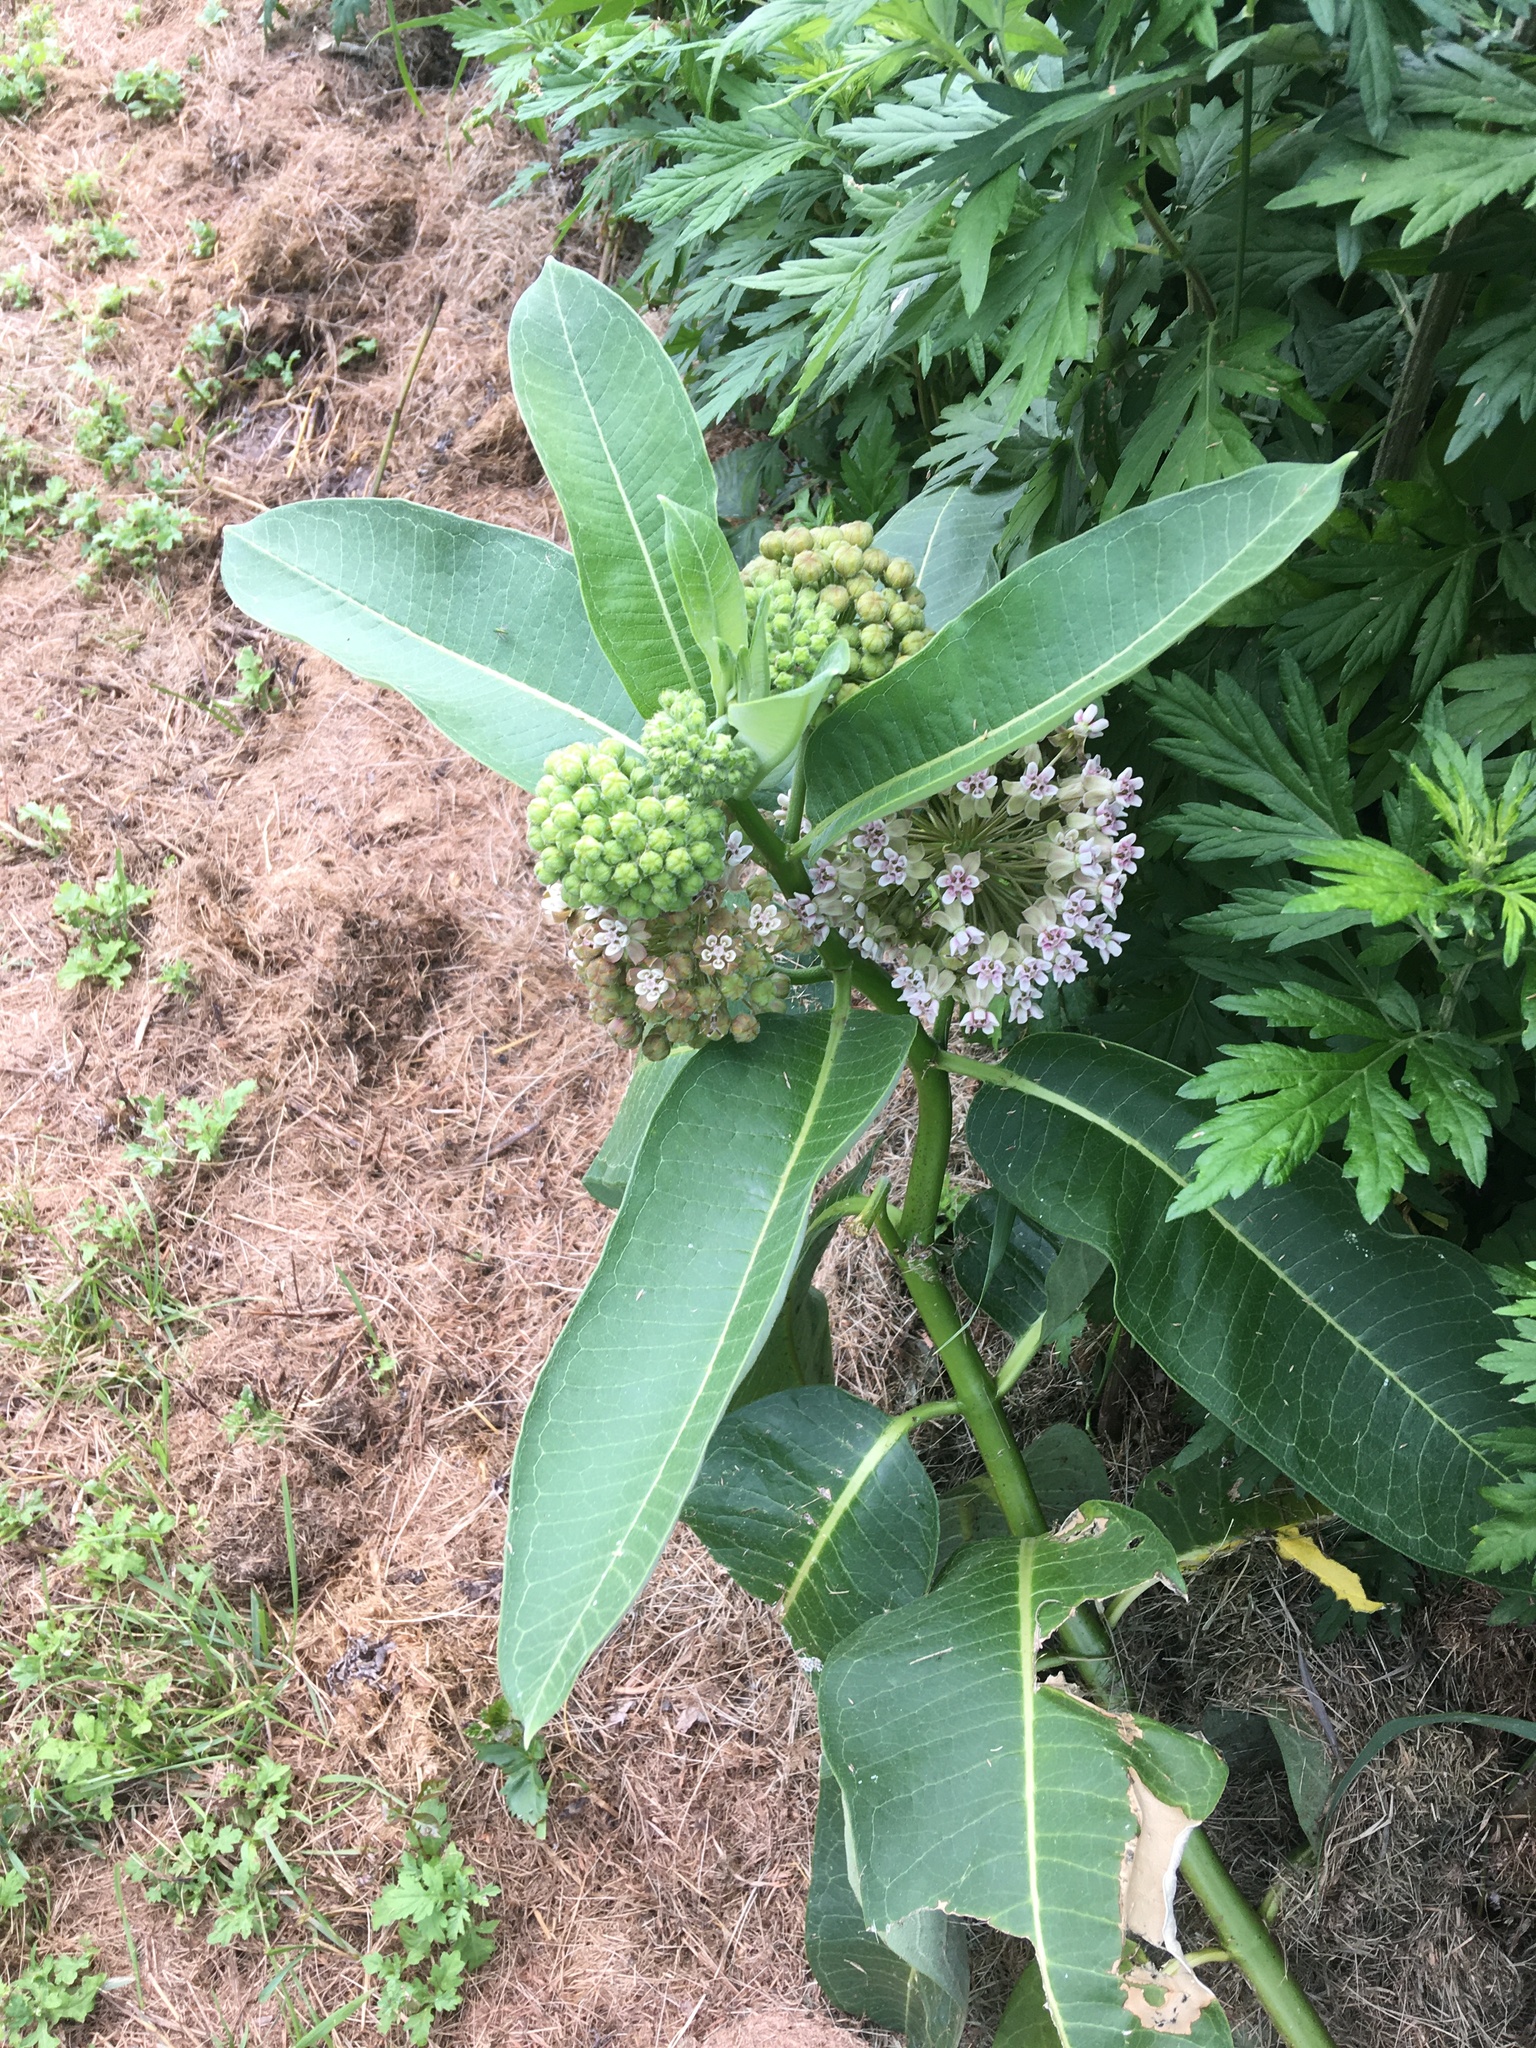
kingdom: Plantae
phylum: Tracheophyta
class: Magnoliopsida
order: Gentianales
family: Apocynaceae
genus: Asclepias
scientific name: Asclepias syriaca
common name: Common milkweed
